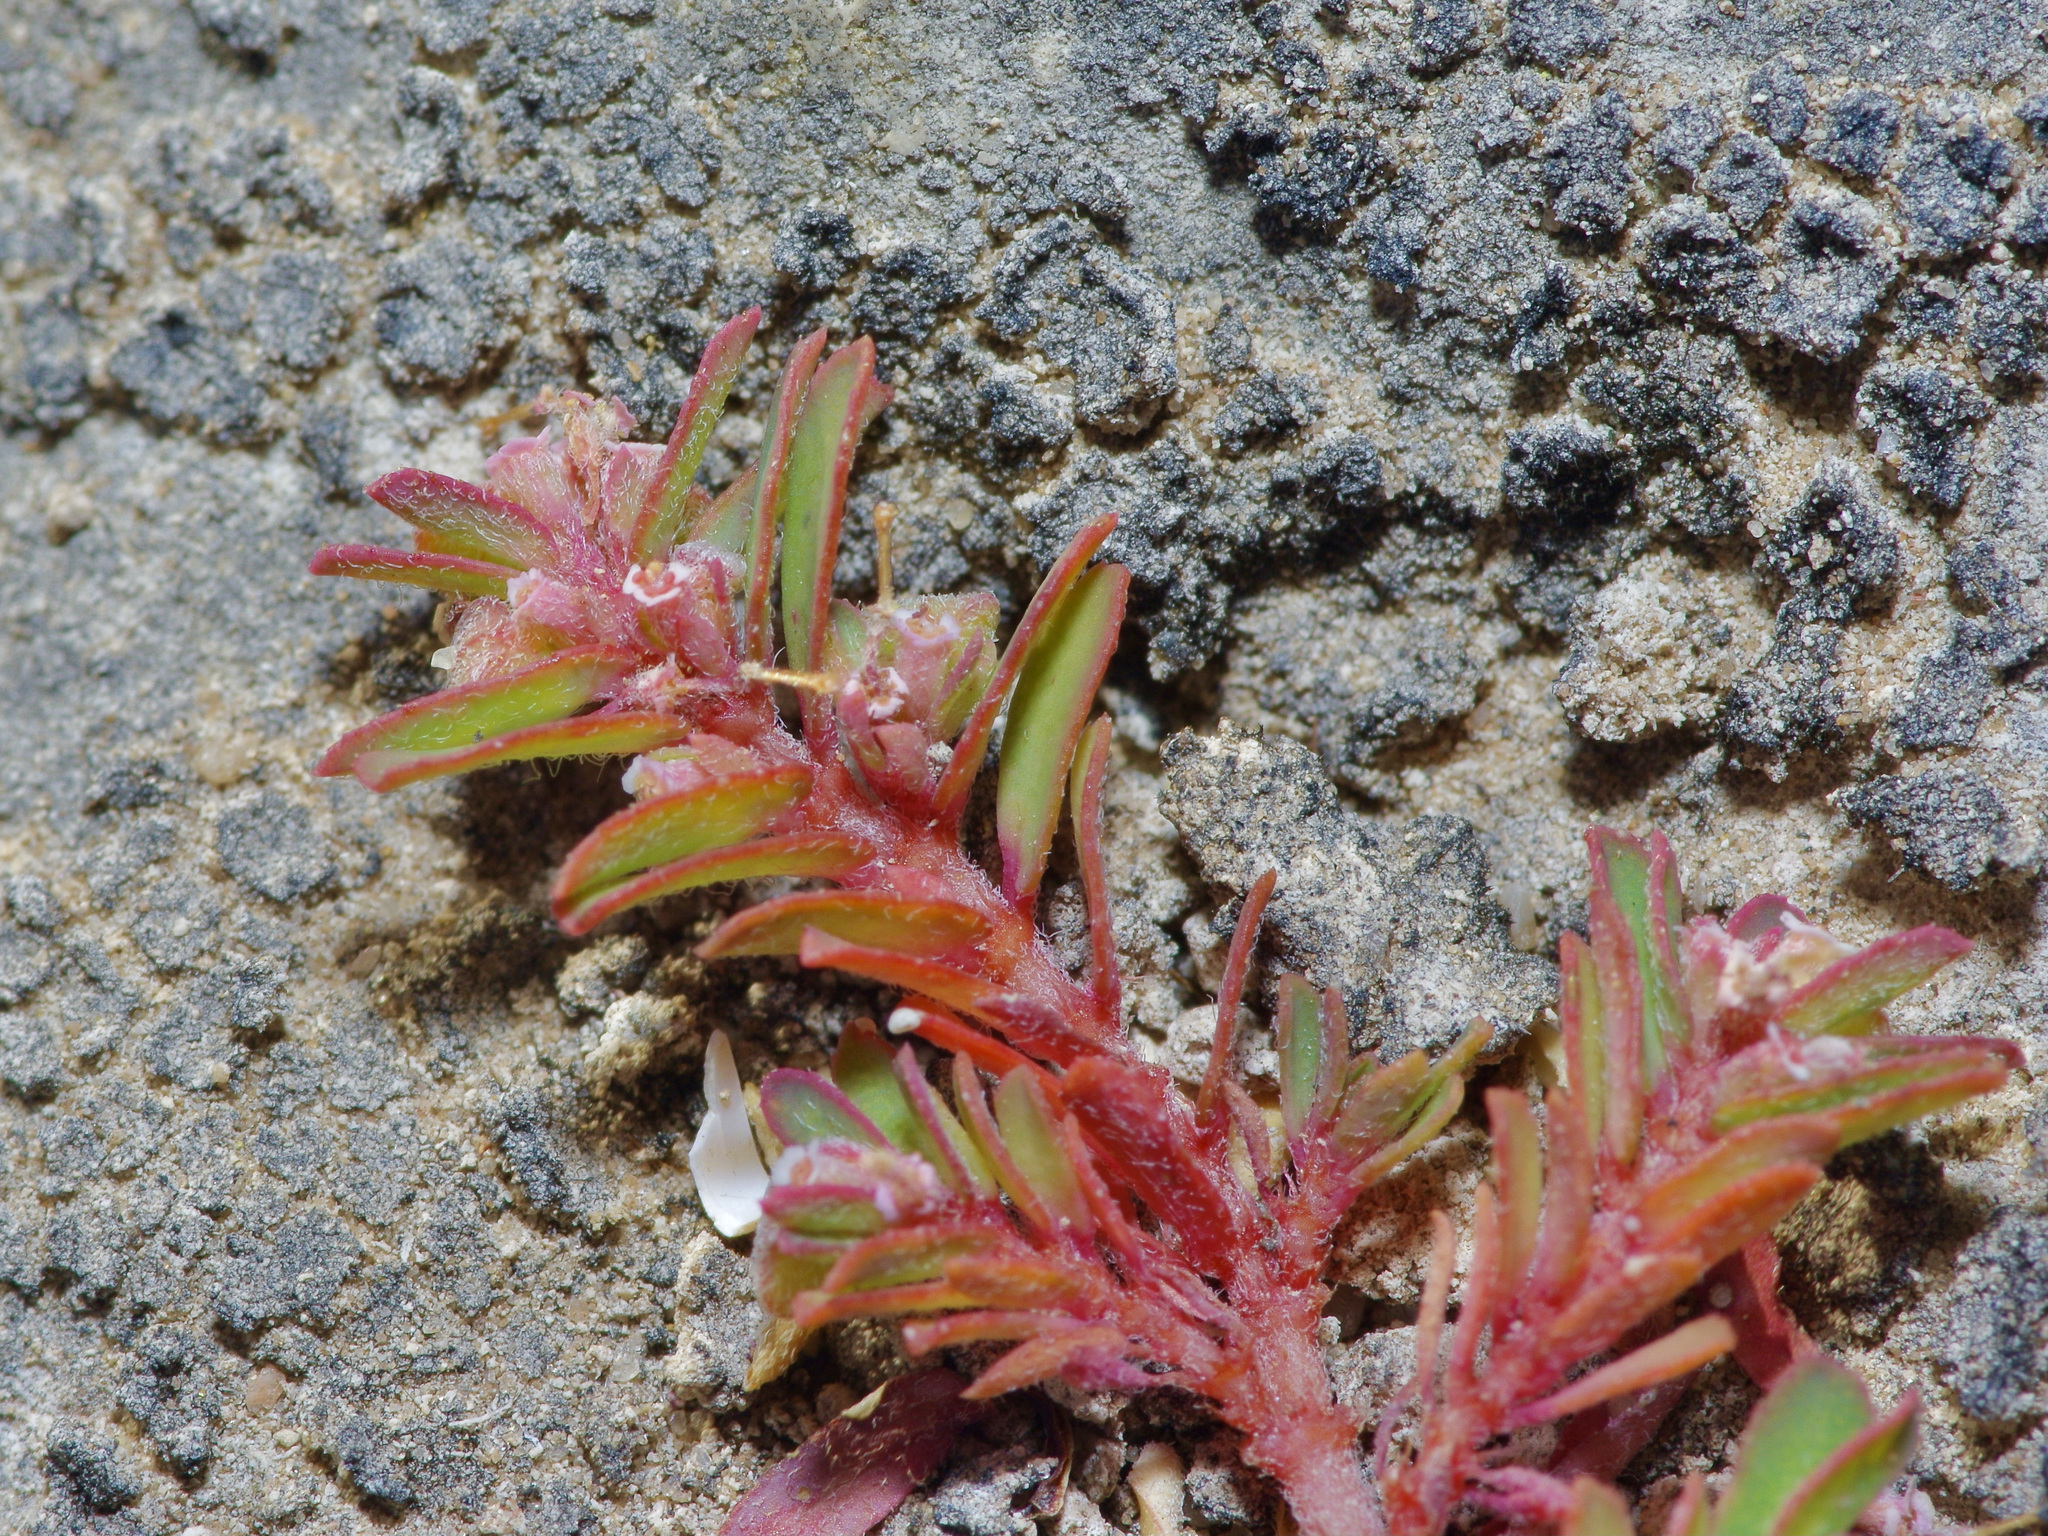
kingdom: Plantae
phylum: Tracheophyta
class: Magnoliopsida
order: Malpighiales
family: Euphorbiaceae
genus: Euphorbia
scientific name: Euphorbia maculata
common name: Spotted spurge
